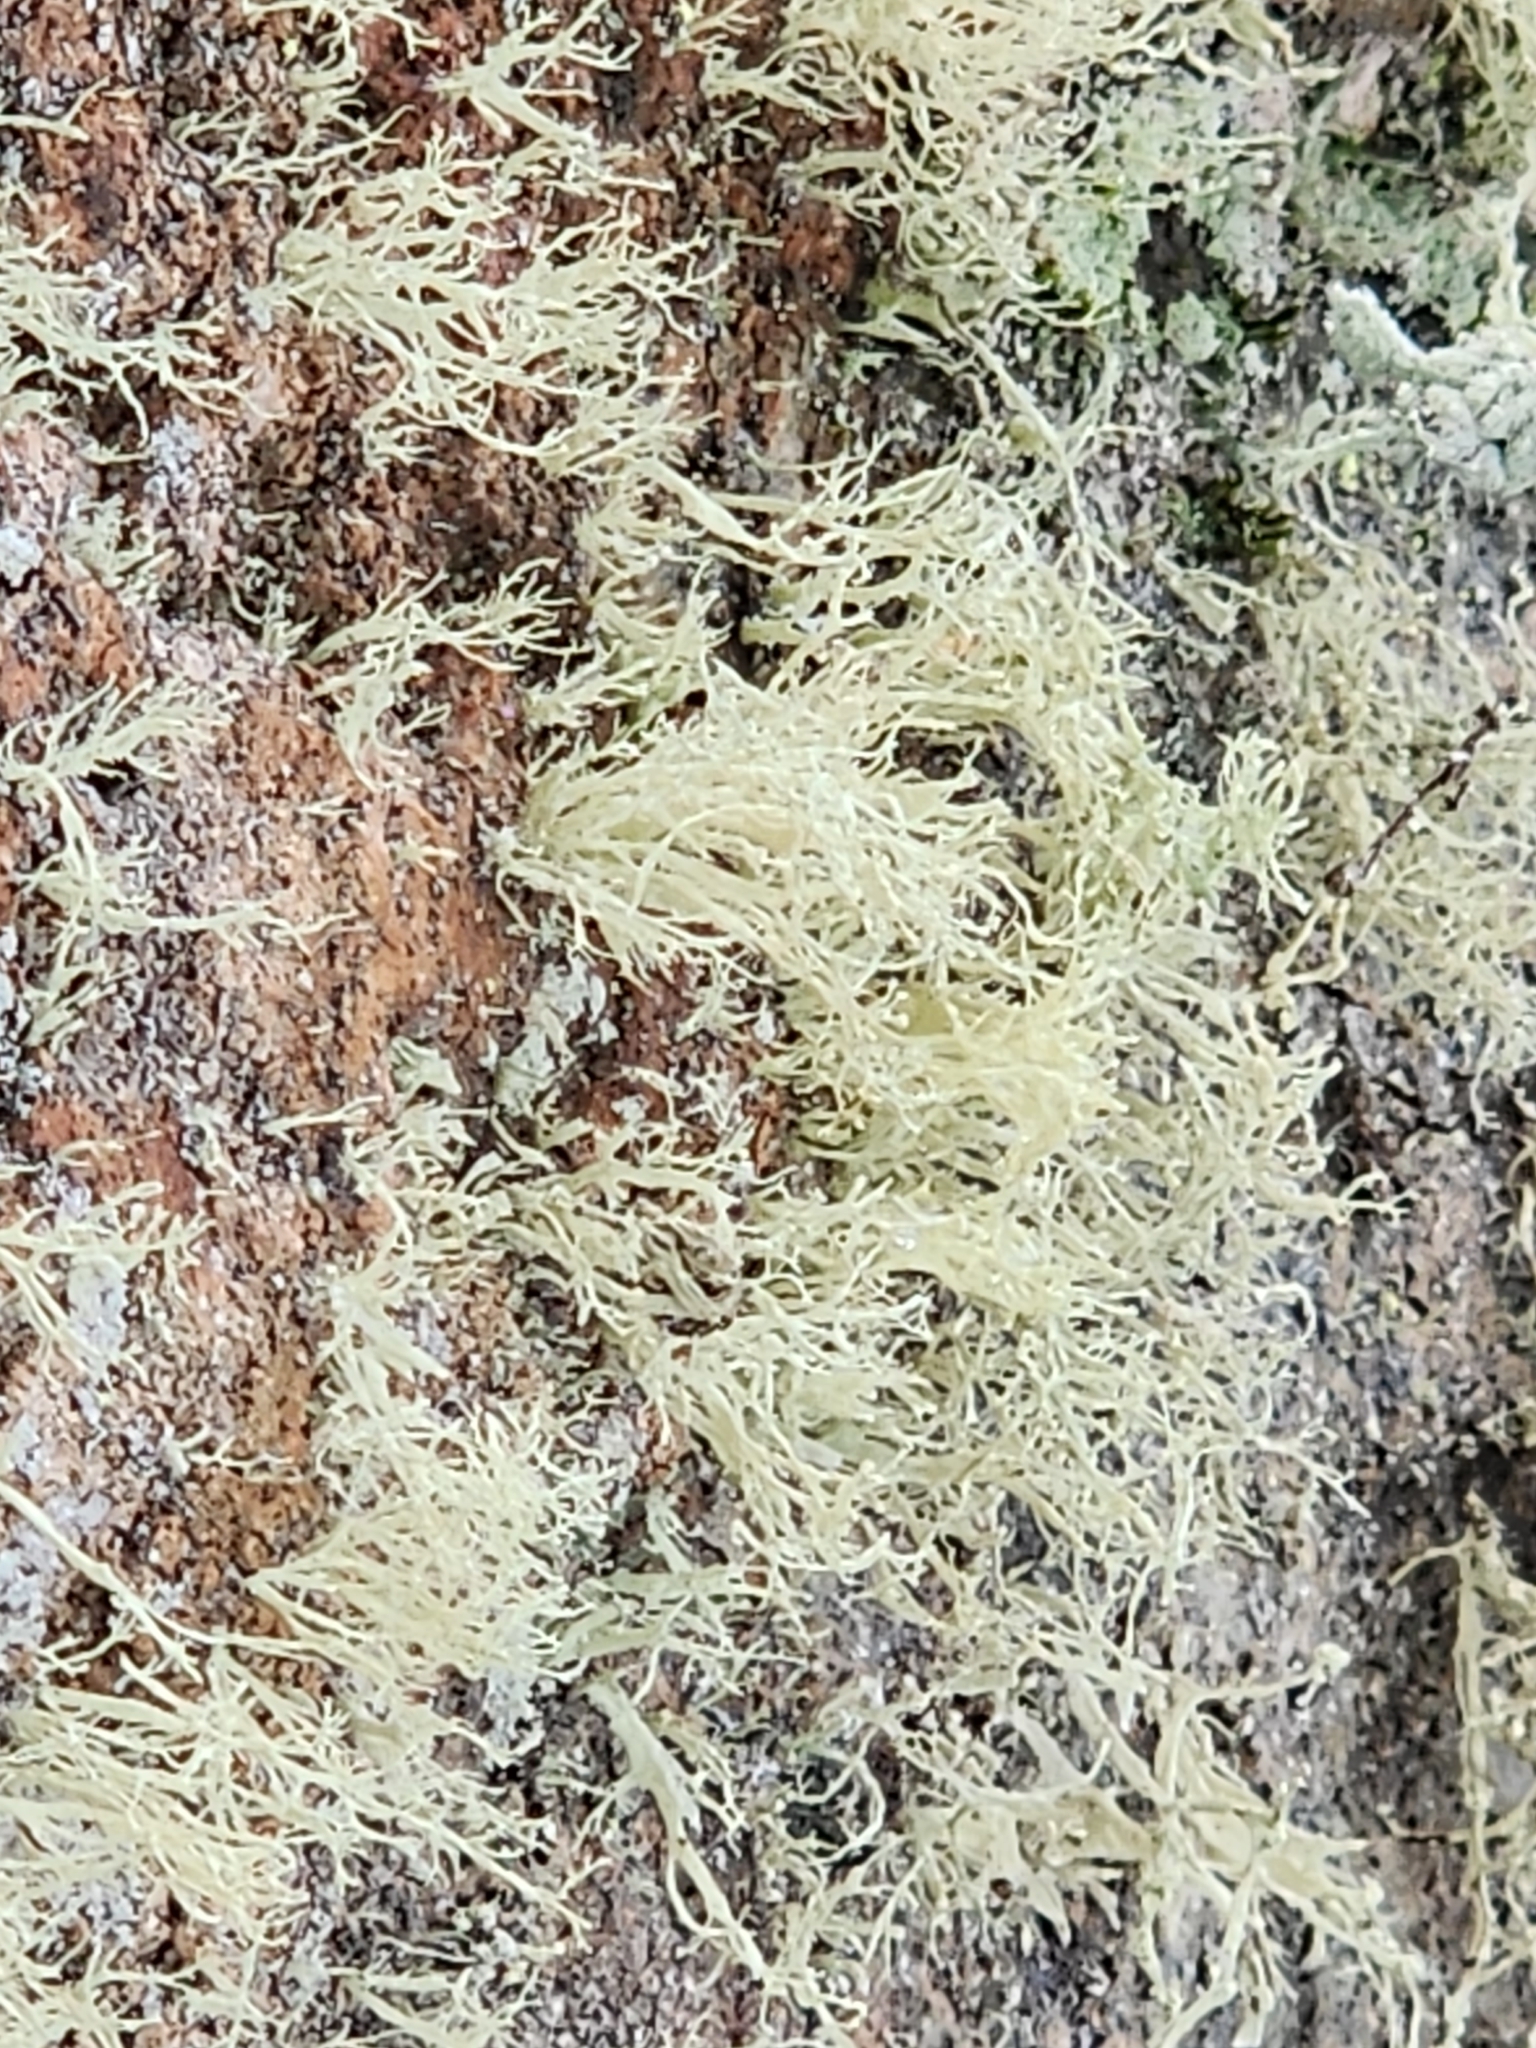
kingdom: Fungi
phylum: Ascomycota
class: Lecanoromycetes
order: Lecanorales
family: Ramalinaceae
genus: Ramalina
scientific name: Ramalina intermedia
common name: Rock bushy lichen
